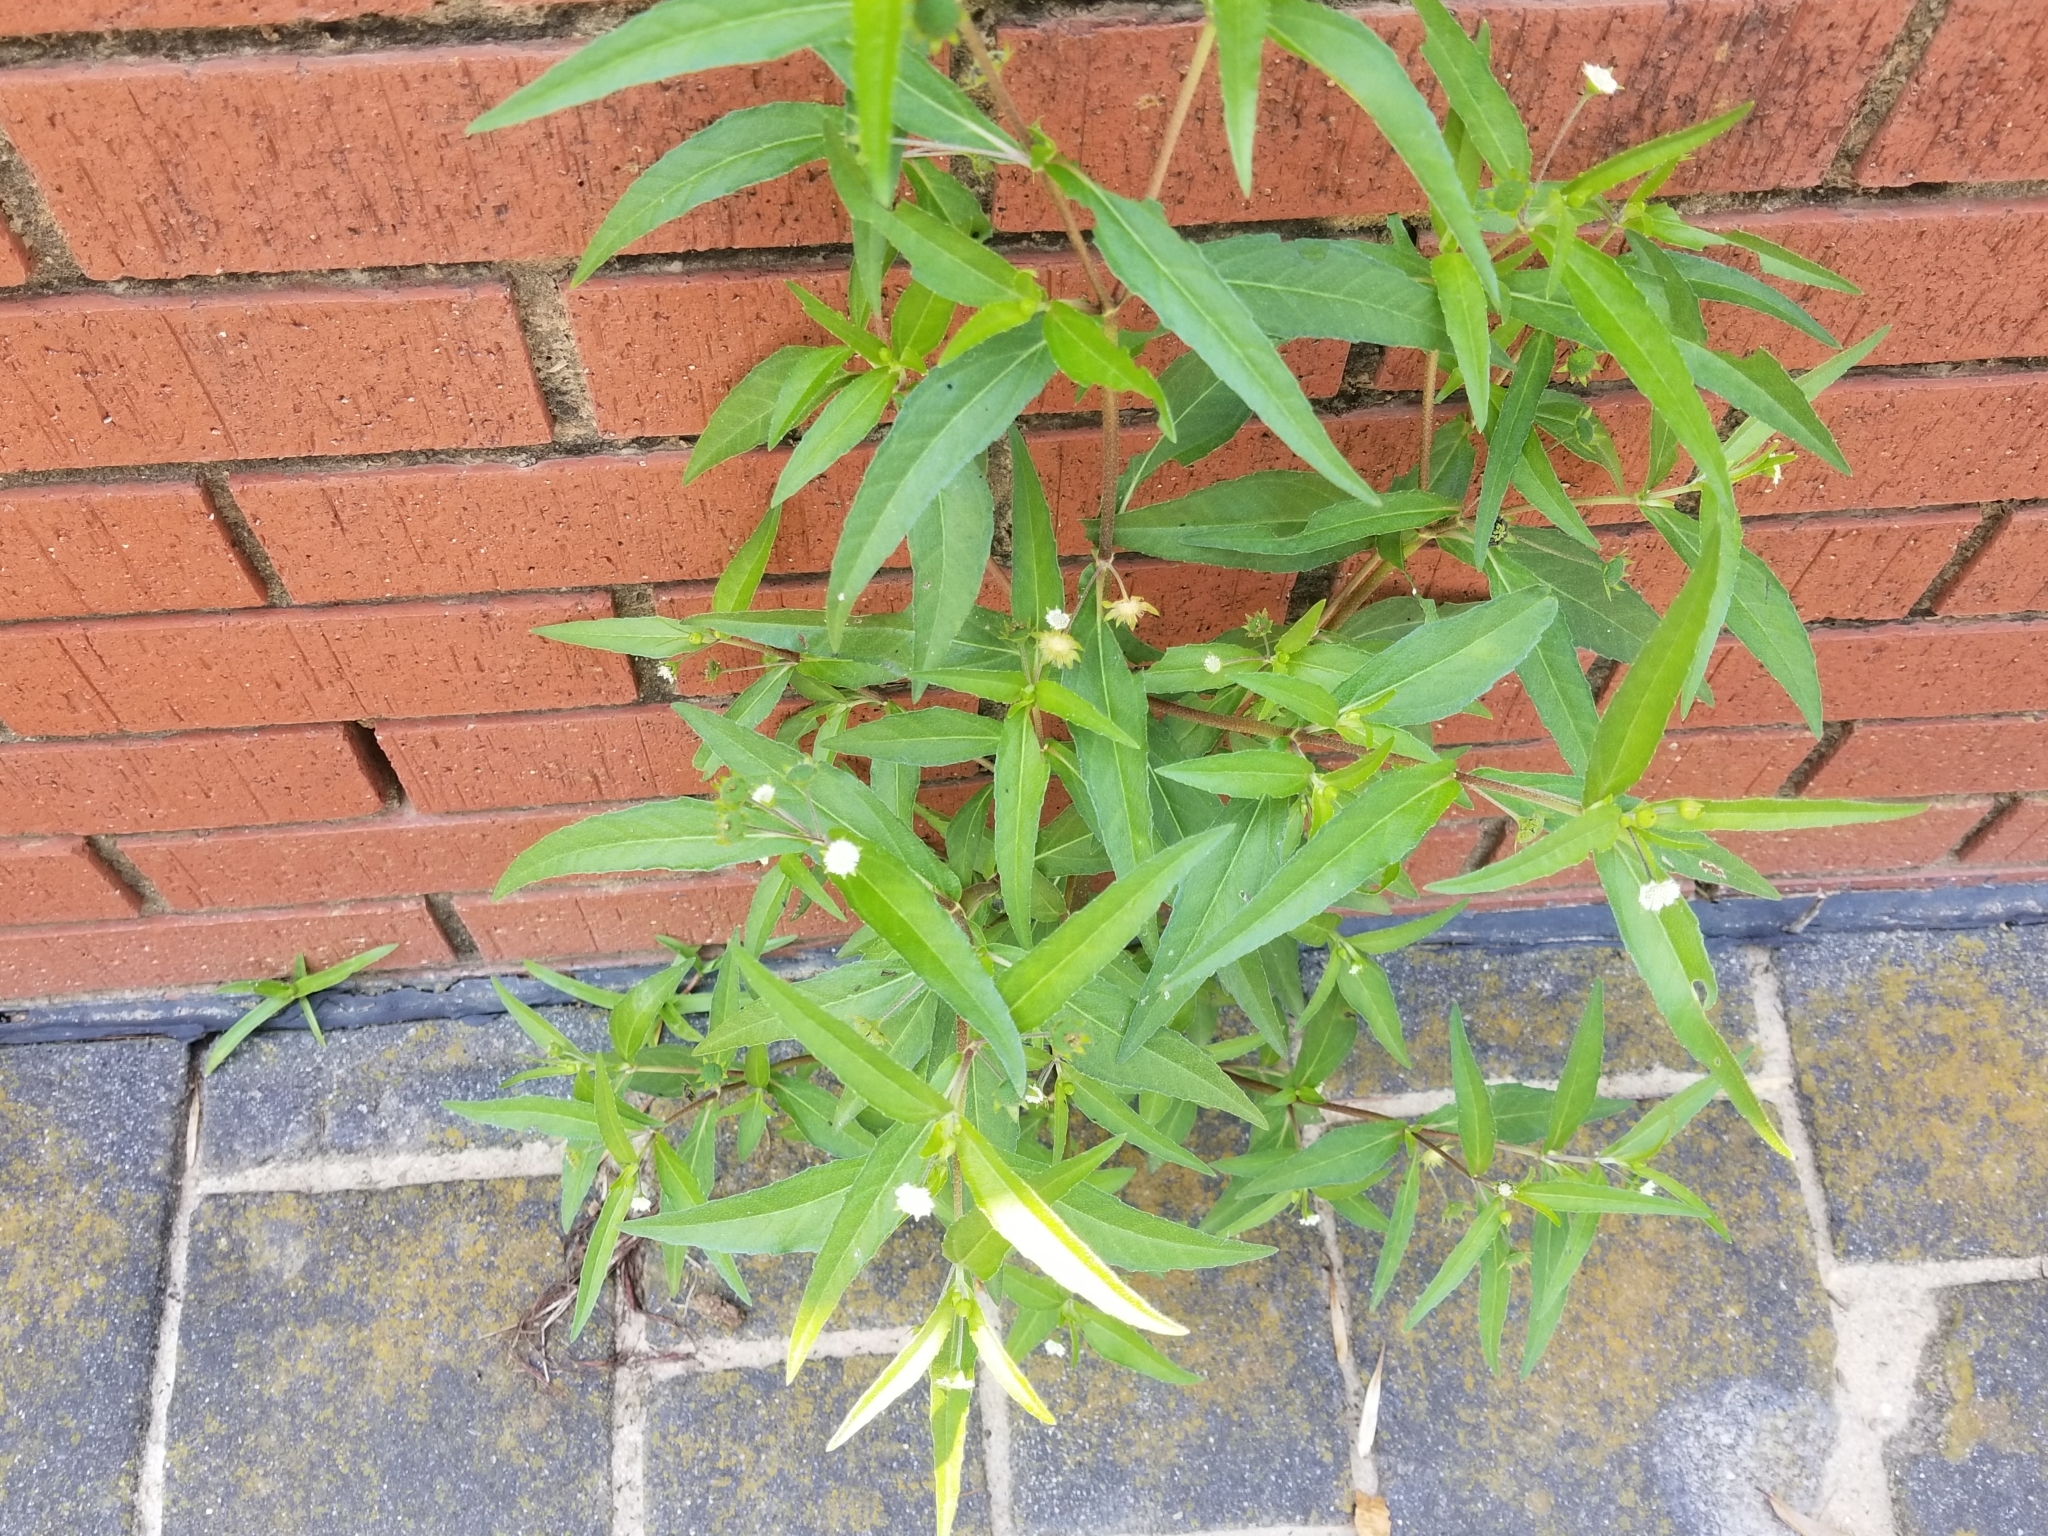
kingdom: Plantae
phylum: Tracheophyta
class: Magnoliopsida
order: Asterales
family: Asteraceae
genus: Eclipta
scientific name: Eclipta prostrata
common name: False daisy
